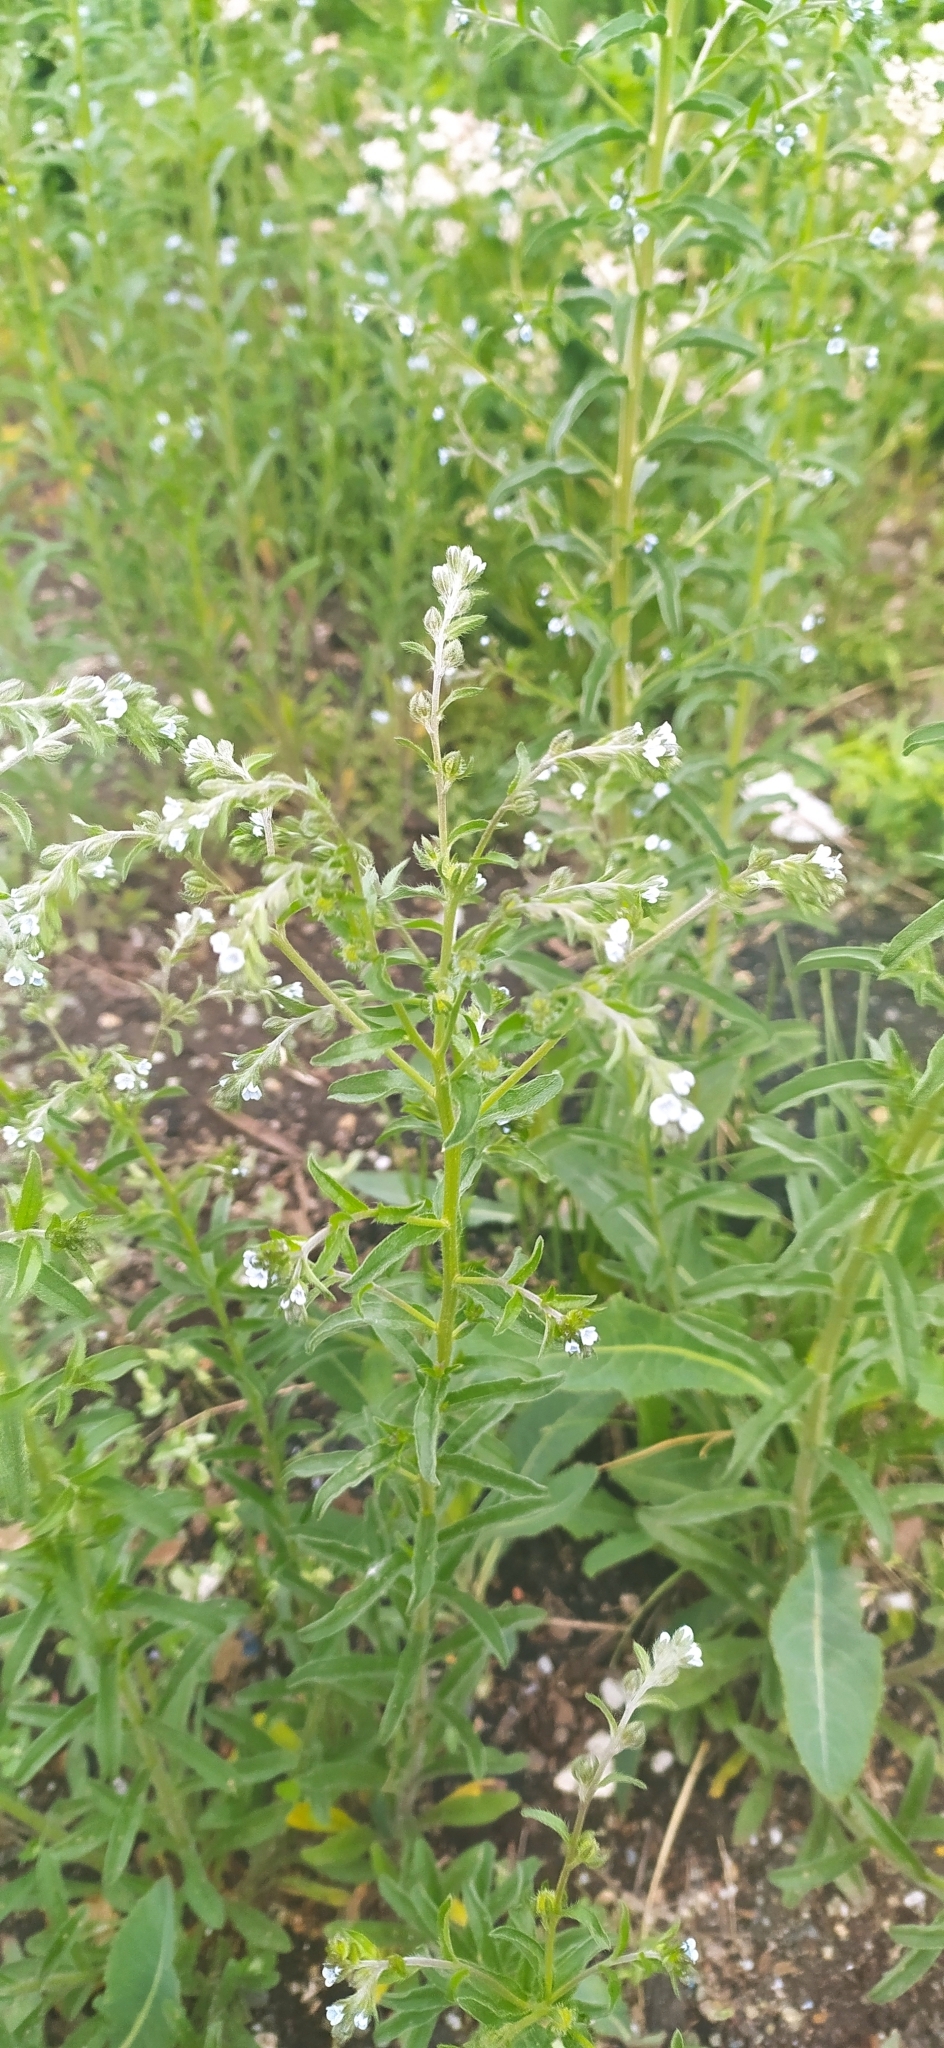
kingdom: Plantae
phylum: Tracheophyta
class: Magnoliopsida
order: Boraginales
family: Boraginaceae
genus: Lappula
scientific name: Lappula squarrosa
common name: European stickseed
